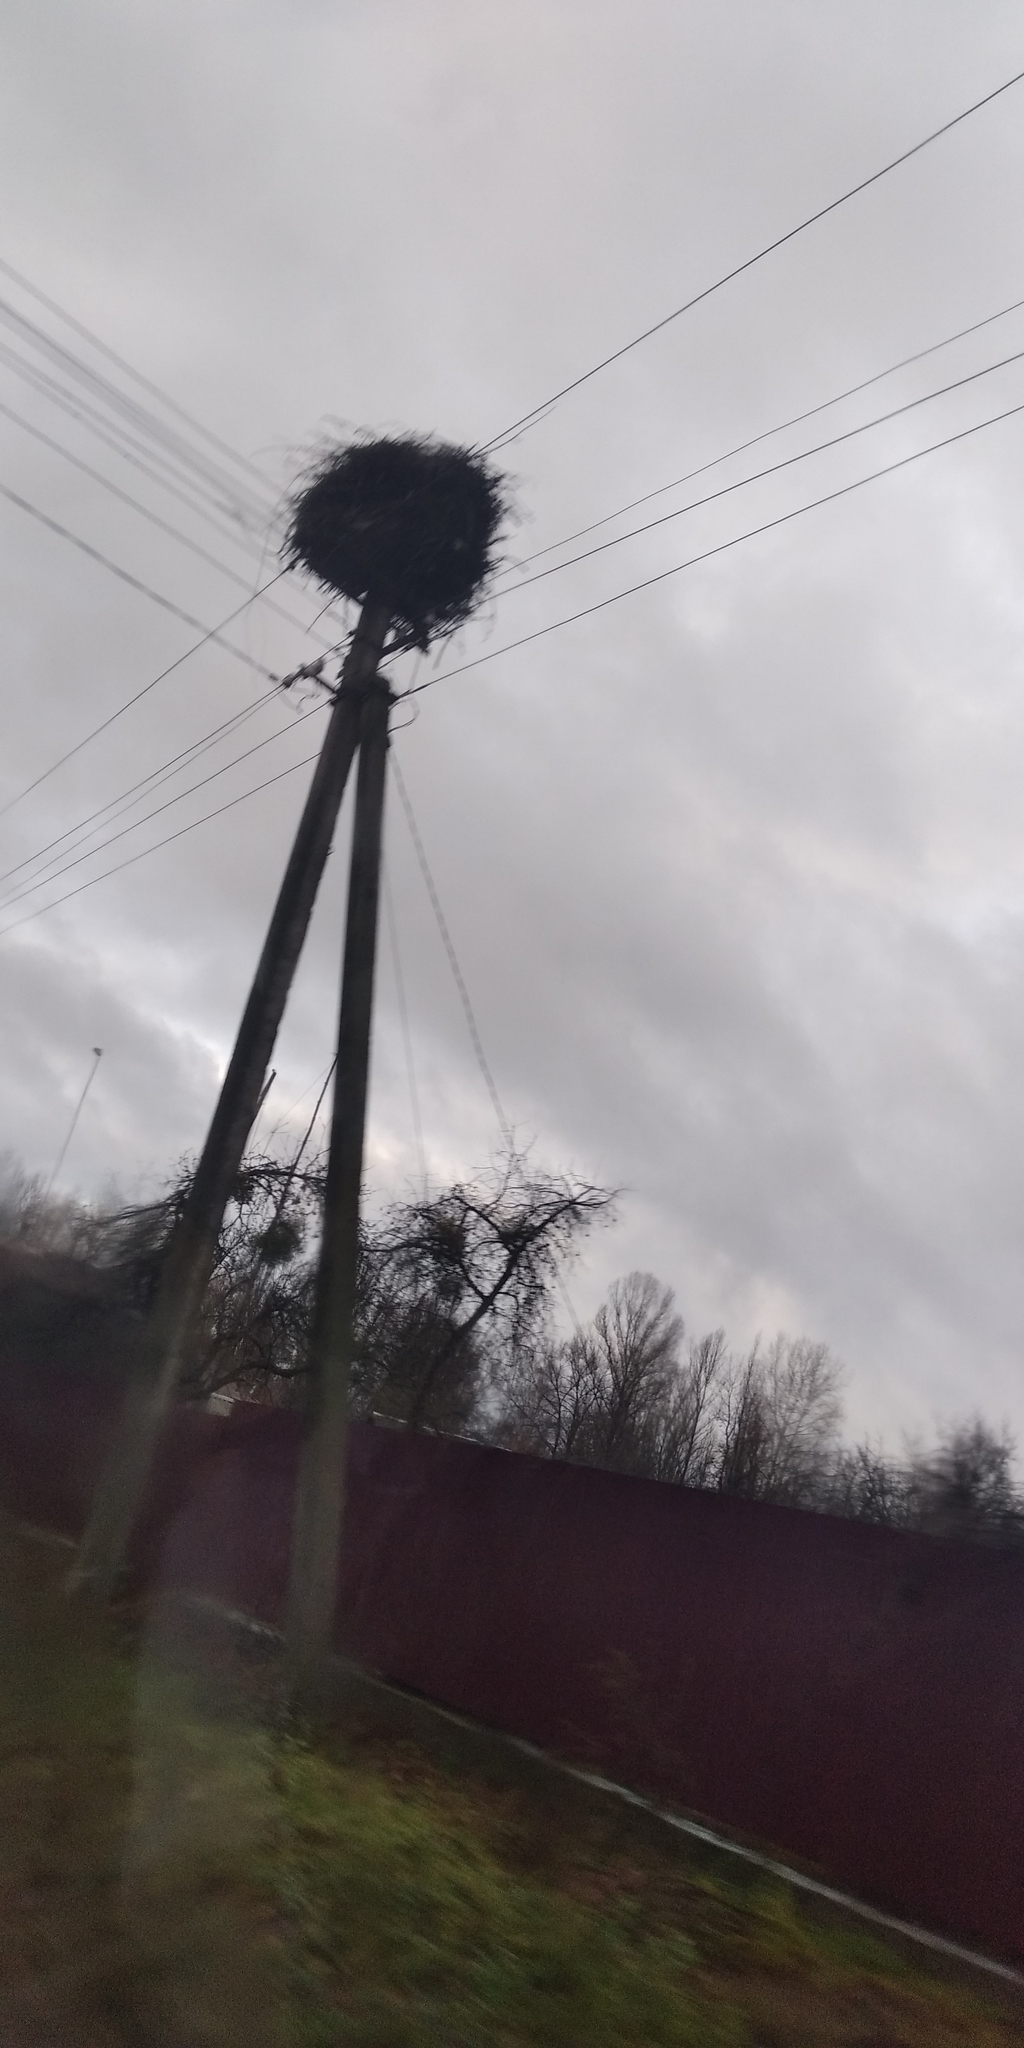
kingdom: Animalia
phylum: Chordata
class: Aves
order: Ciconiiformes
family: Ciconiidae
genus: Ciconia
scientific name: Ciconia ciconia
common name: White stork
